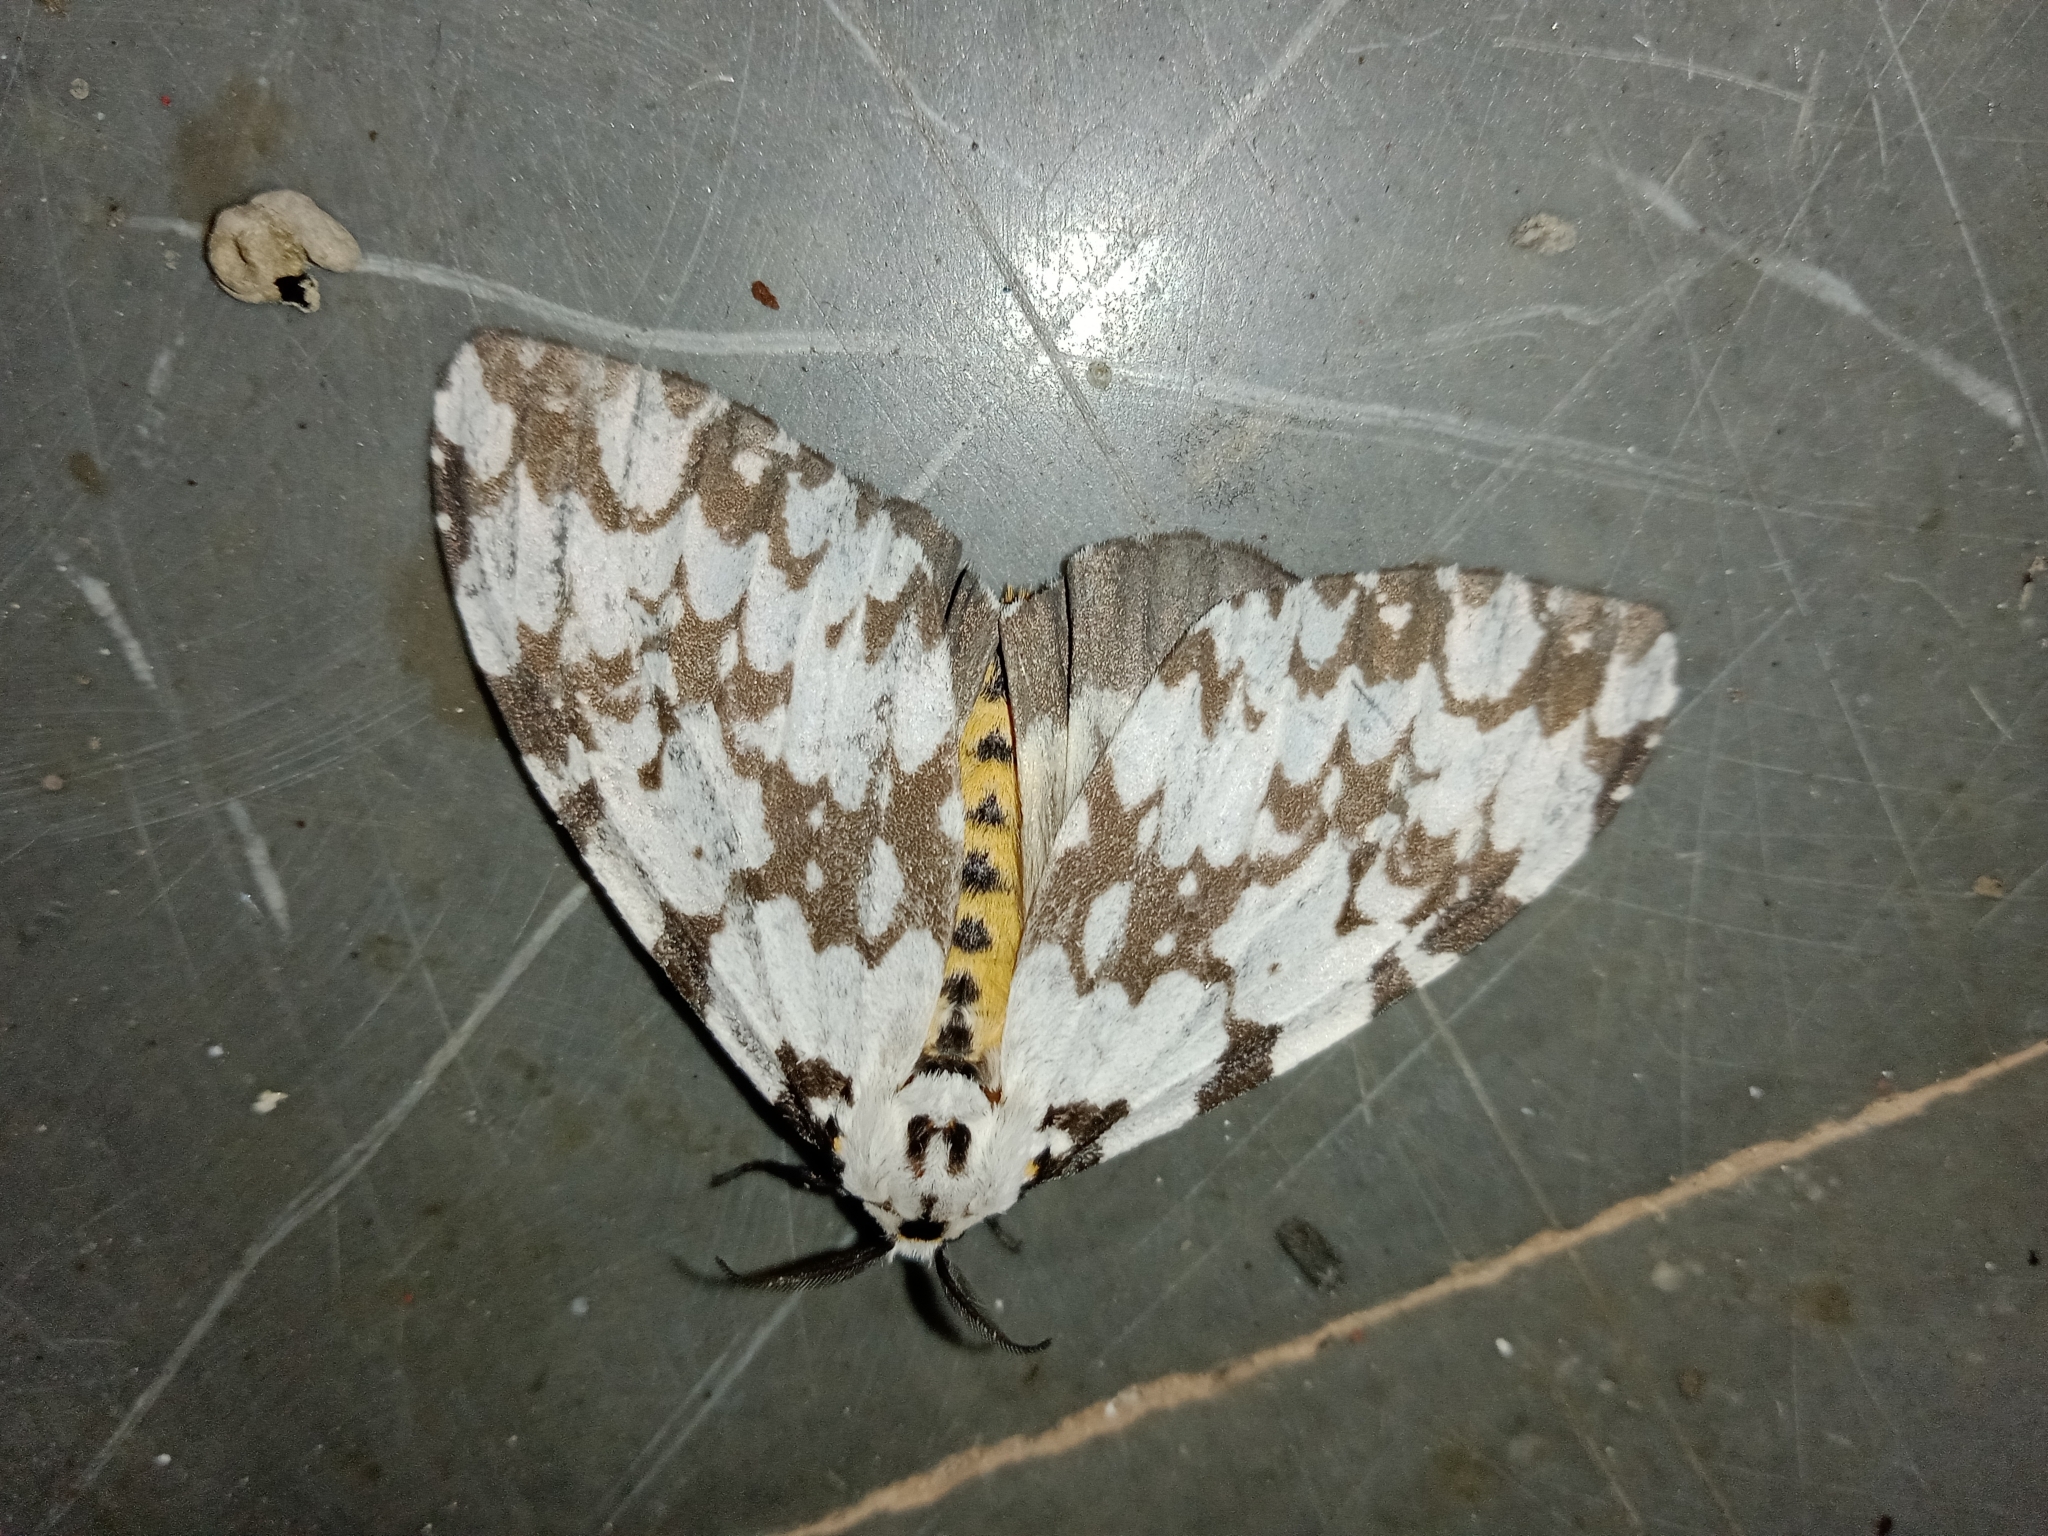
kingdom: Animalia
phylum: Arthropoda
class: Insecta
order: Lepidoptera
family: Erebidae
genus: Lymantria
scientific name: Lymantria marginata
